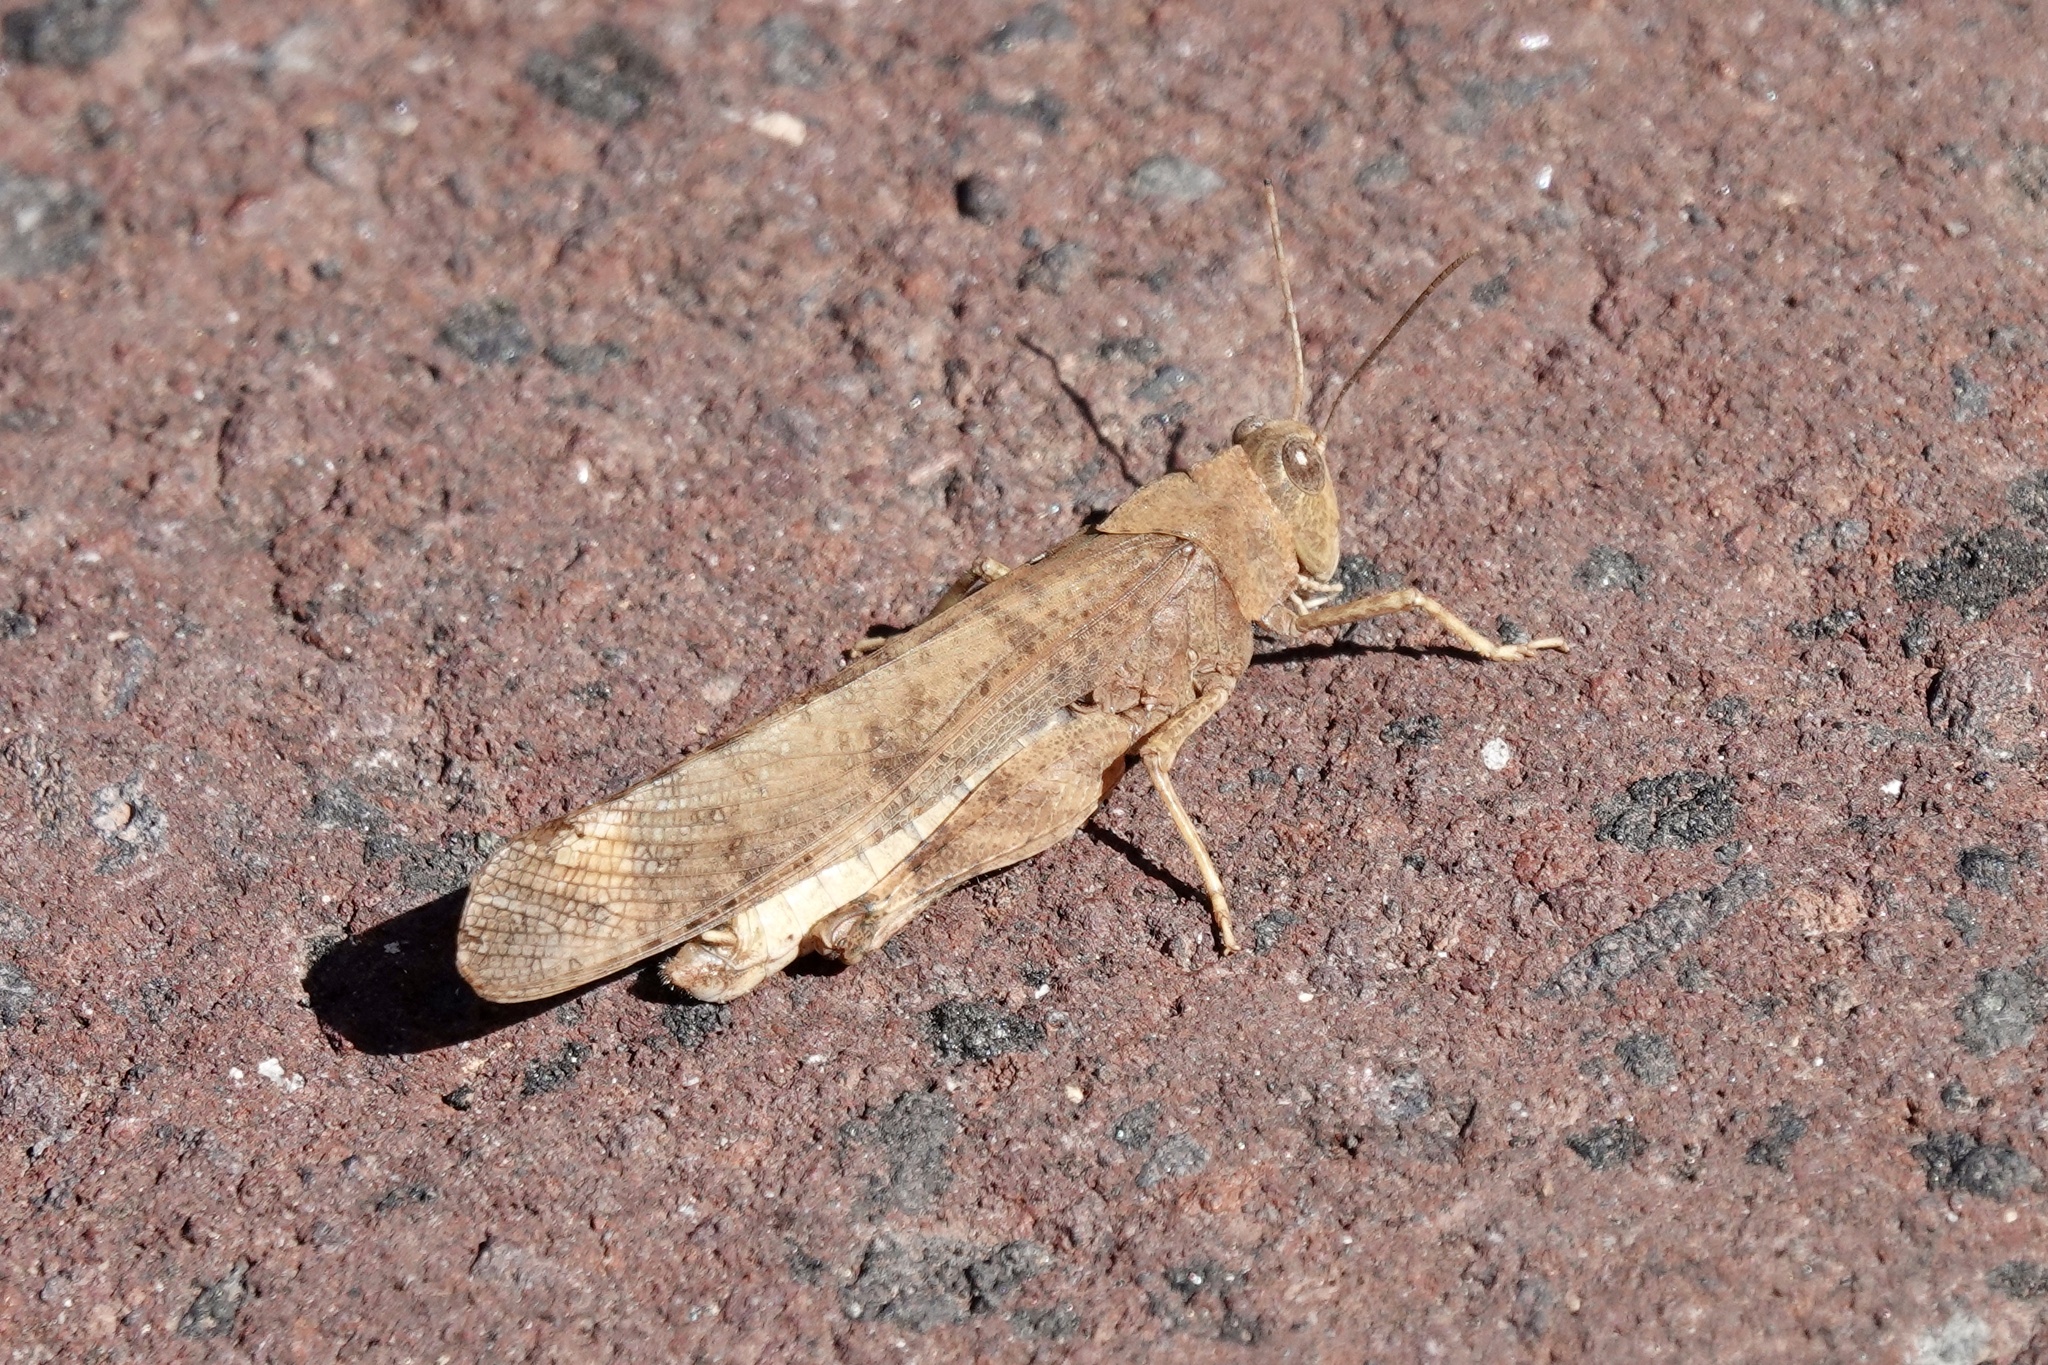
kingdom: Animalia
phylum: Arthropoda
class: Insecta
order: Orthoptera
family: Acrididae
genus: Dissosteira
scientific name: Dissosteira carolina
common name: Carolina grasshopper
